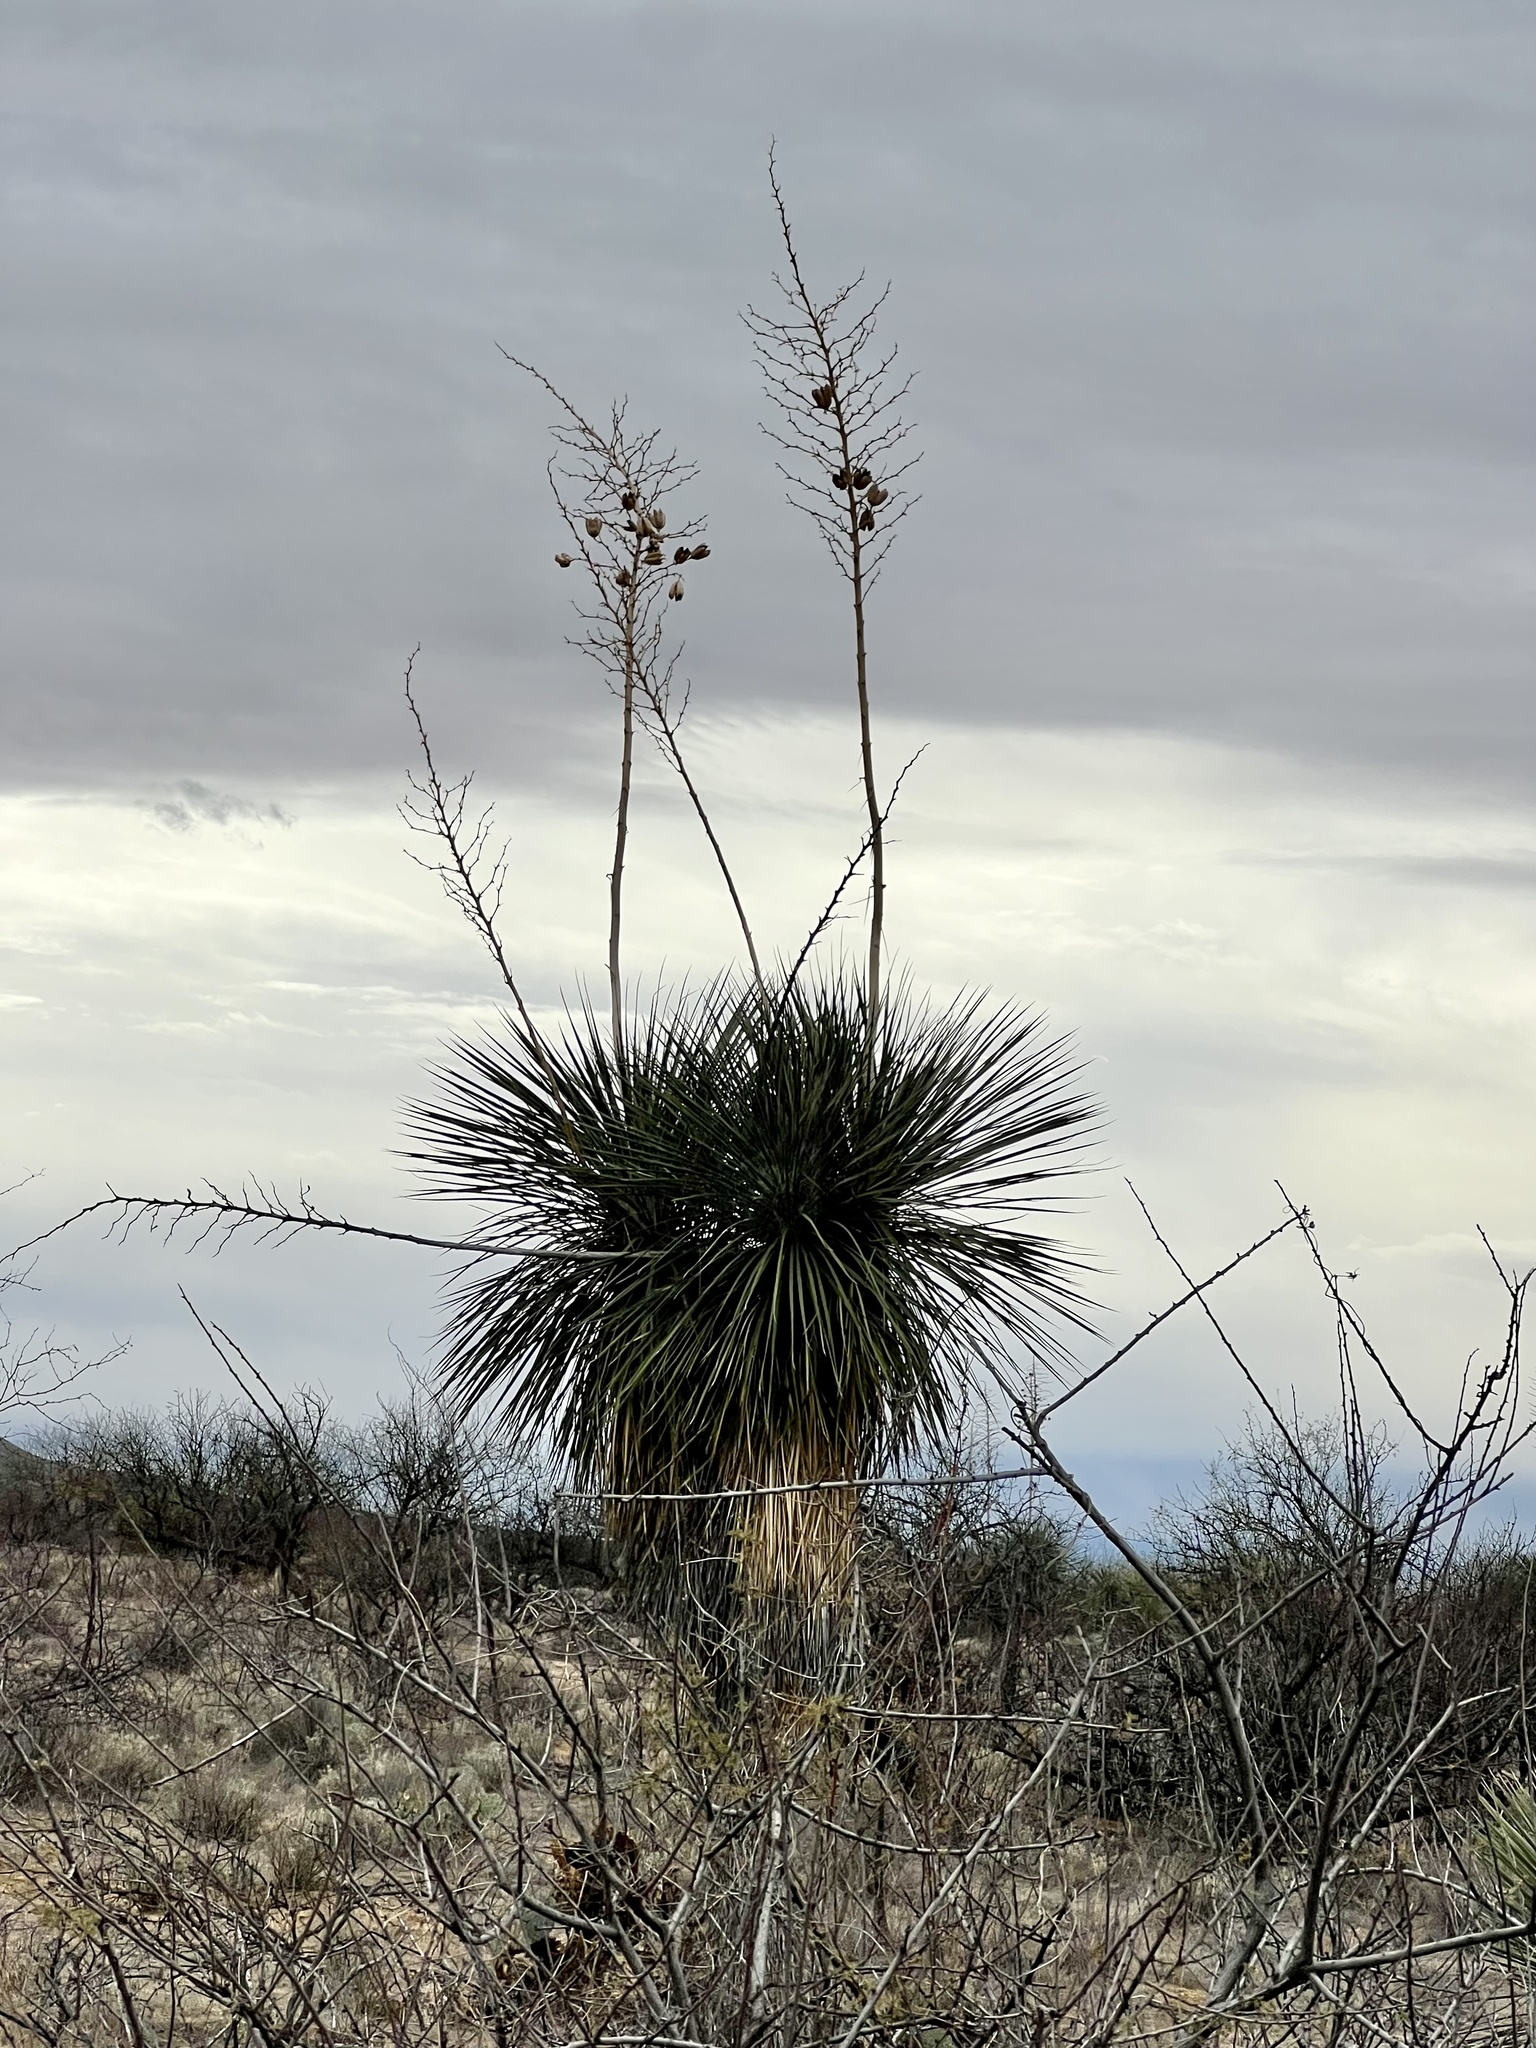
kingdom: Plantae
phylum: Tracheophyta
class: Liliopsida
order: Asparagales
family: Asparagaceae
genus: Yucca
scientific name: Yucca elata
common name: Palmella
